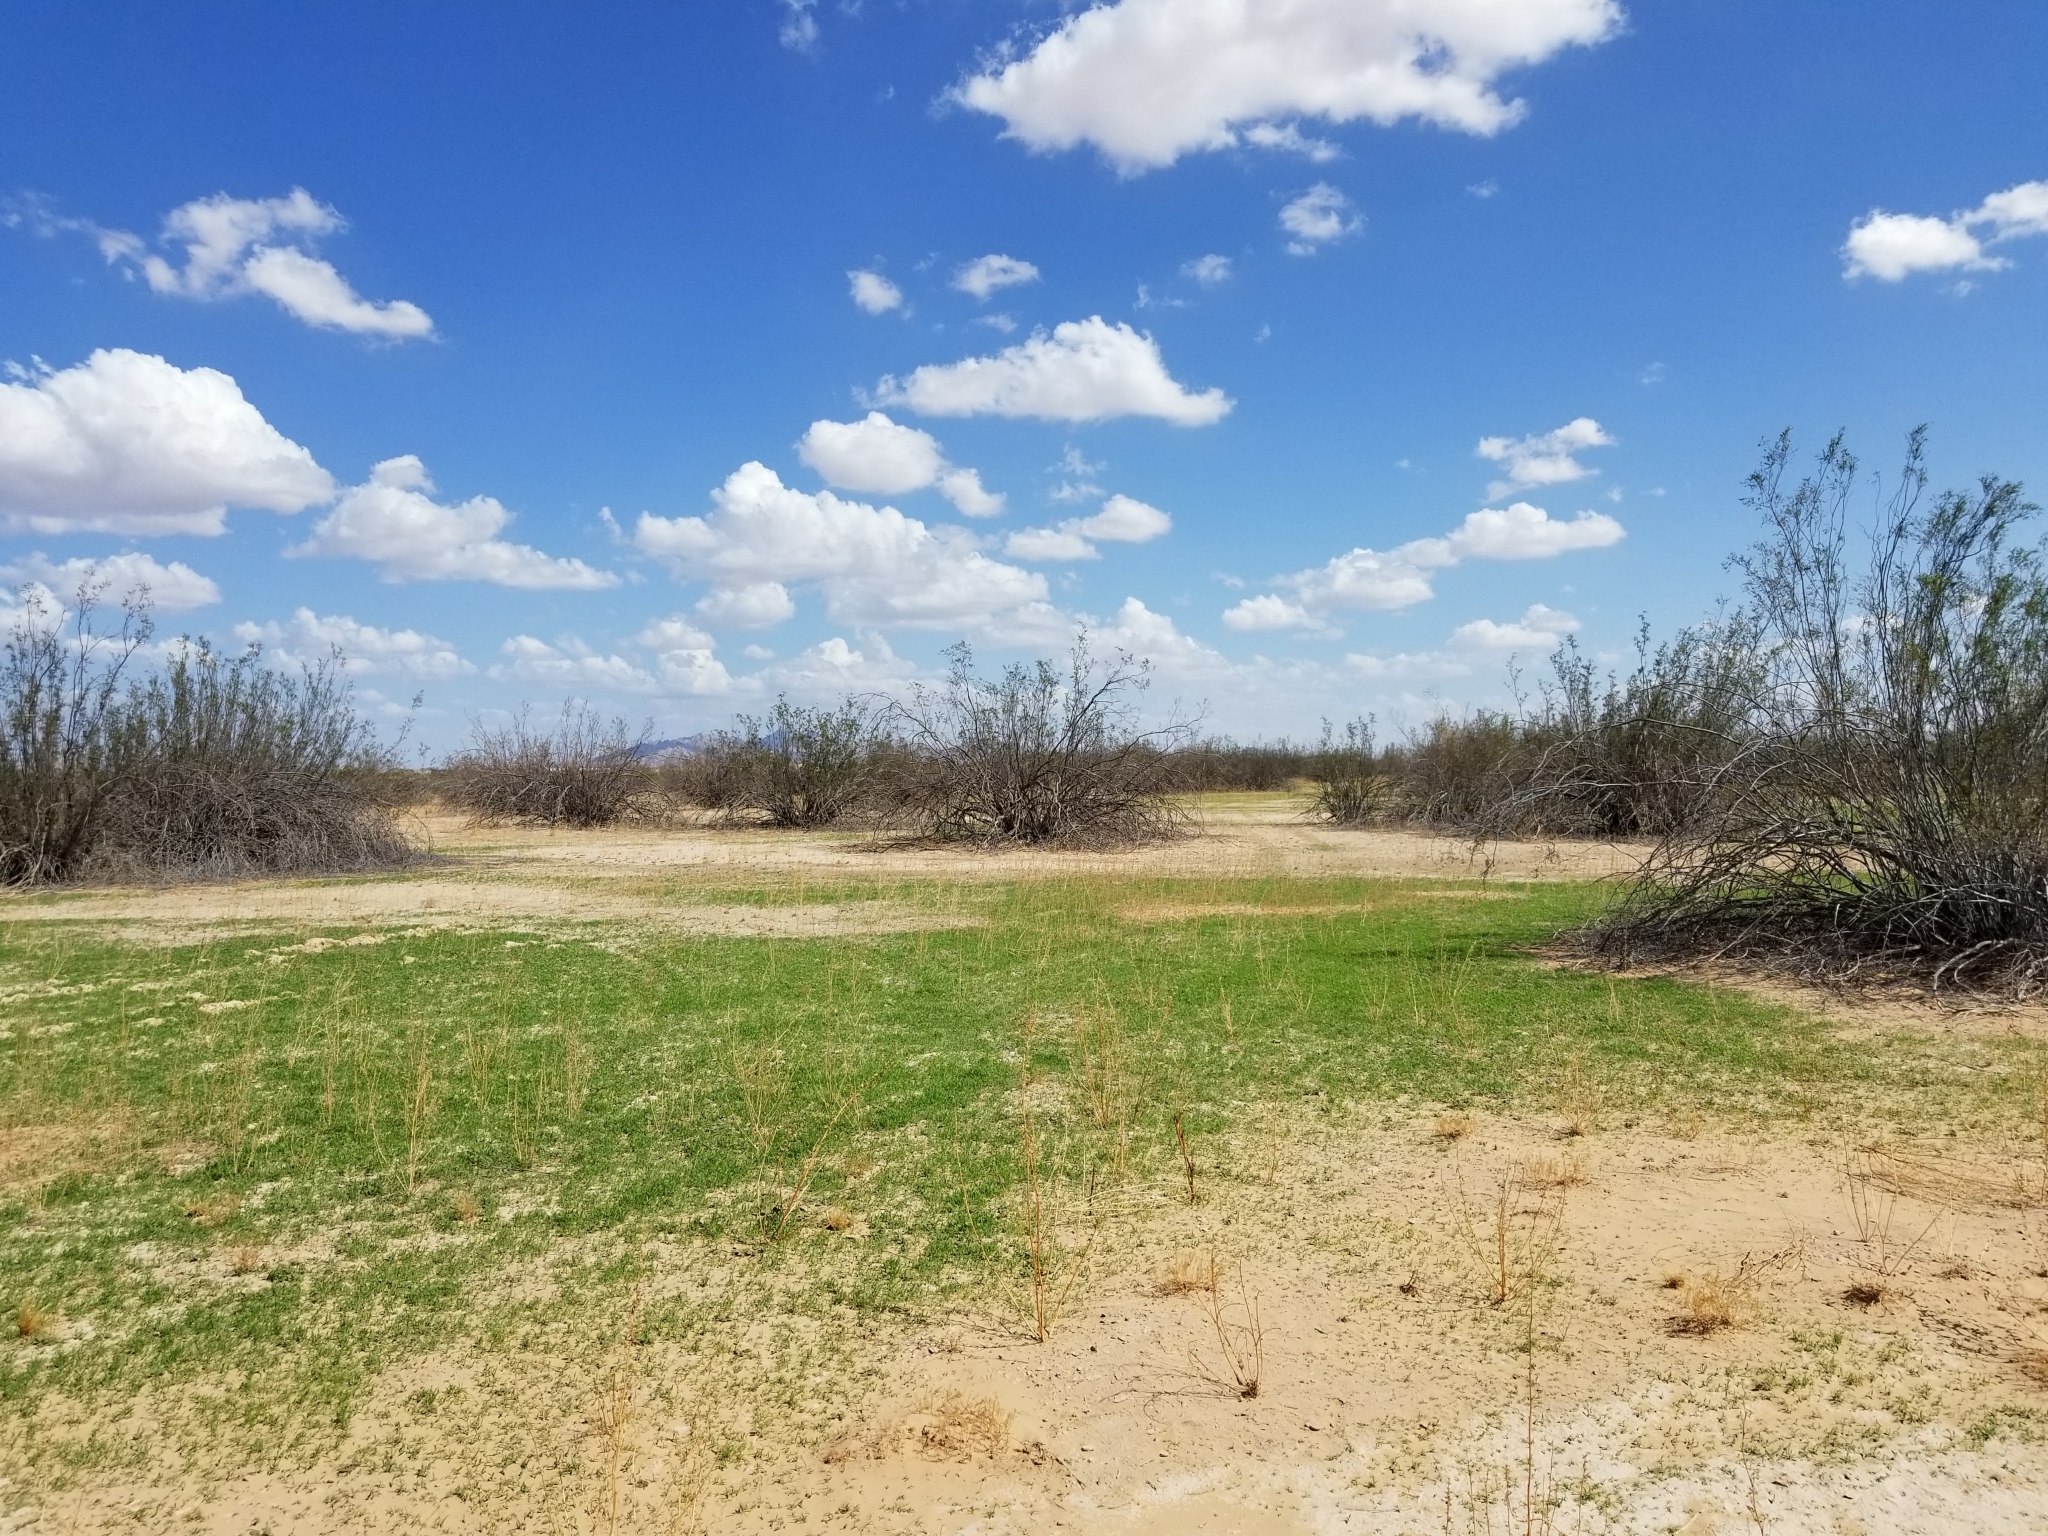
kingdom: Plantae
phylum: Tracheophyta
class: Magnoliopsida
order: Zygophyllales
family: Zygophyllaceae
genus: Larrea
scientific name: Larrea tridentata
